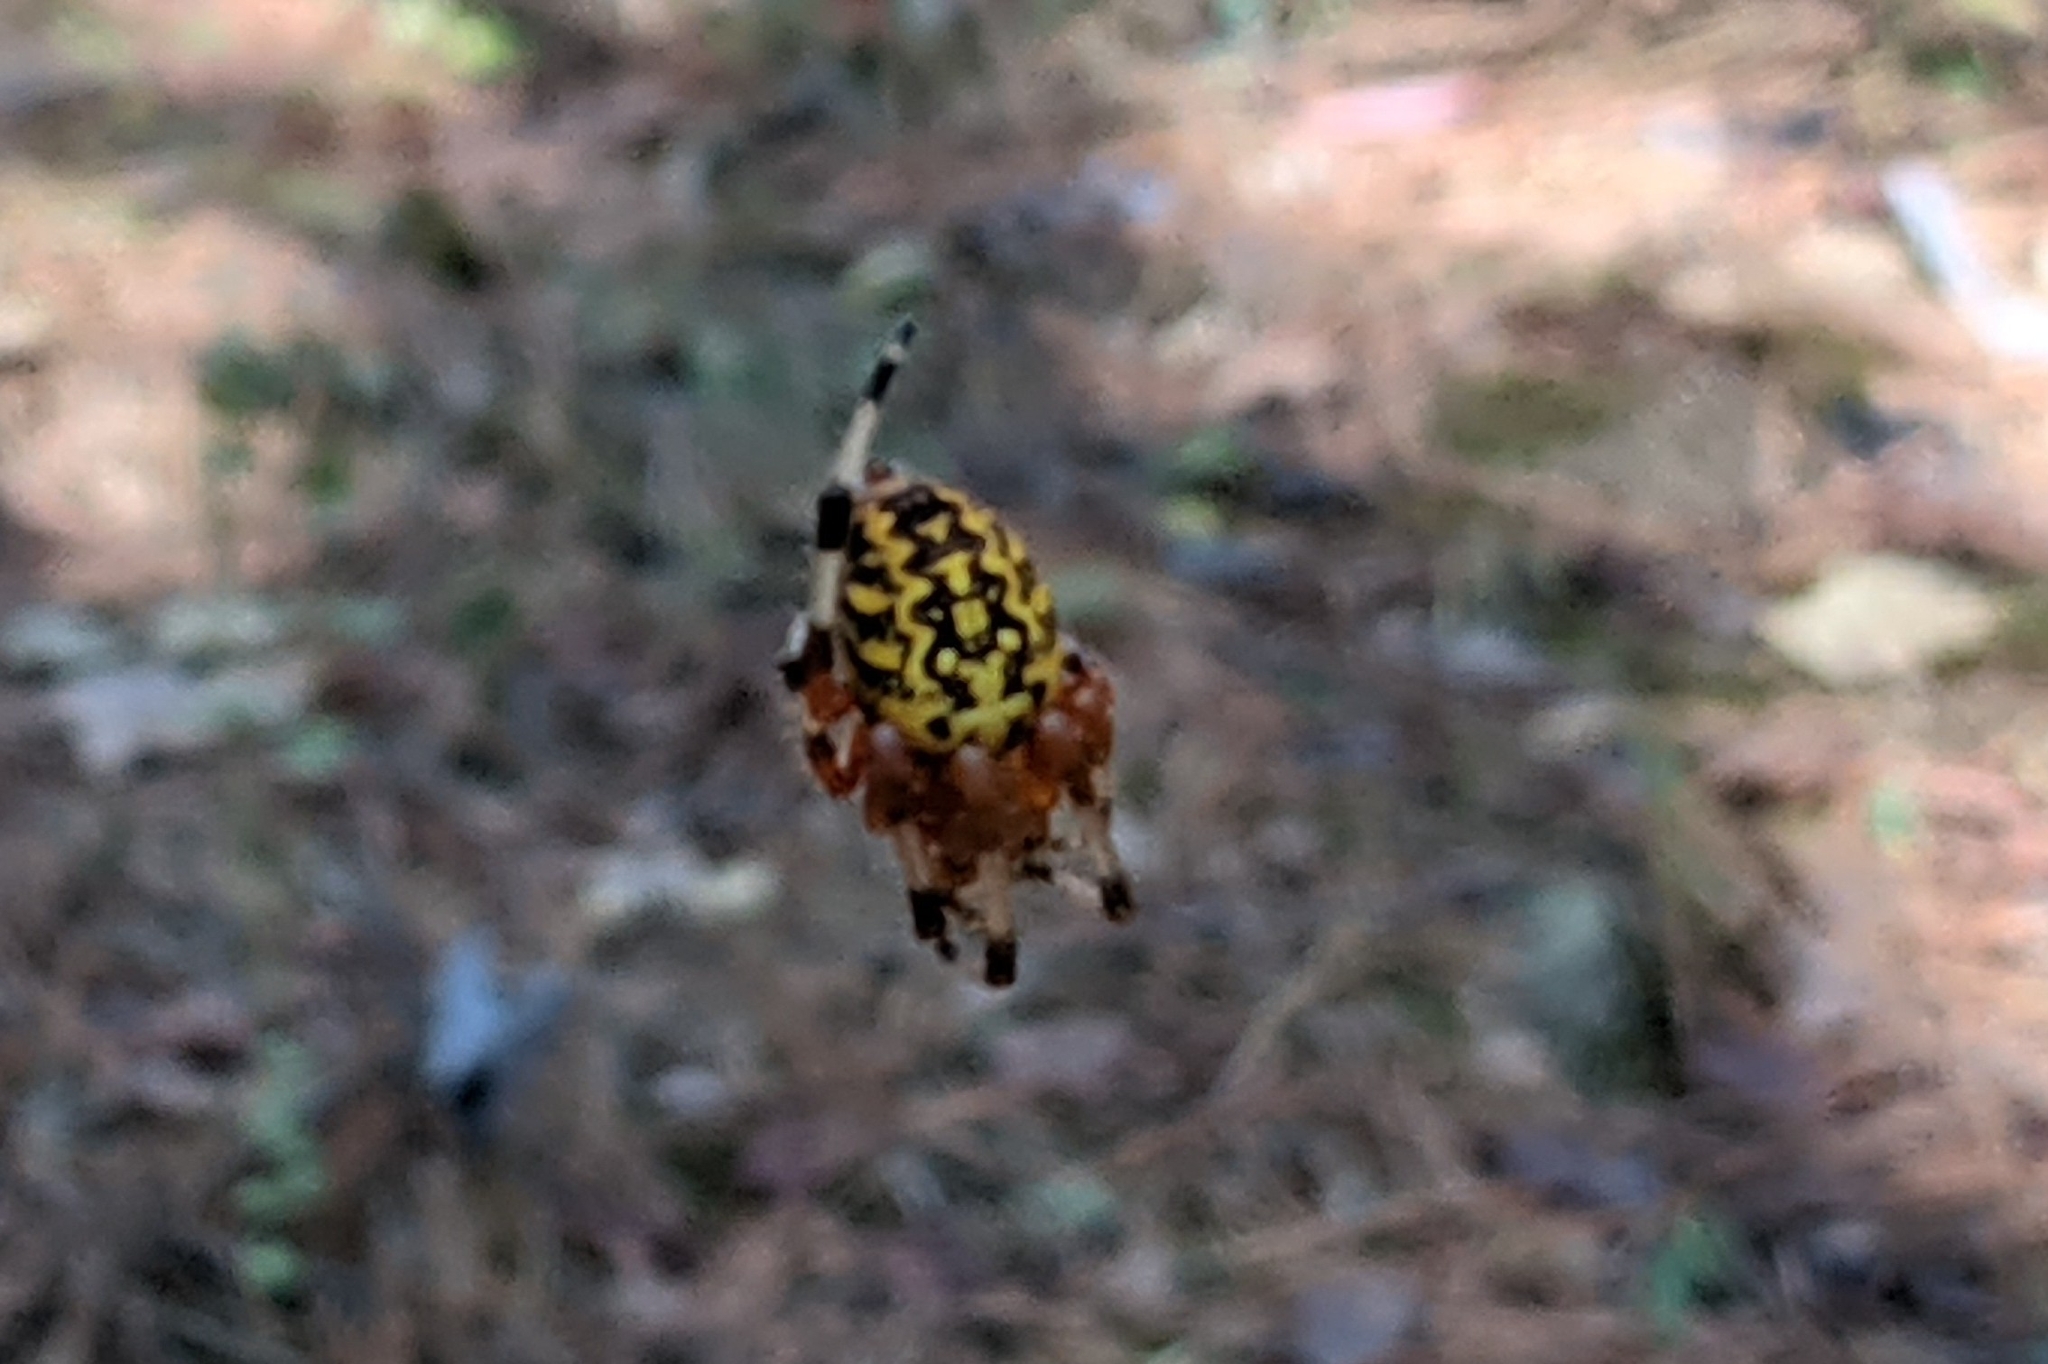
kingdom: Animalia
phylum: Arthropoda
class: Arachnida
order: Araneae
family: Araneidae
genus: Araneus
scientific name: Araneus marmoreus
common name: Marbled orbweaver
